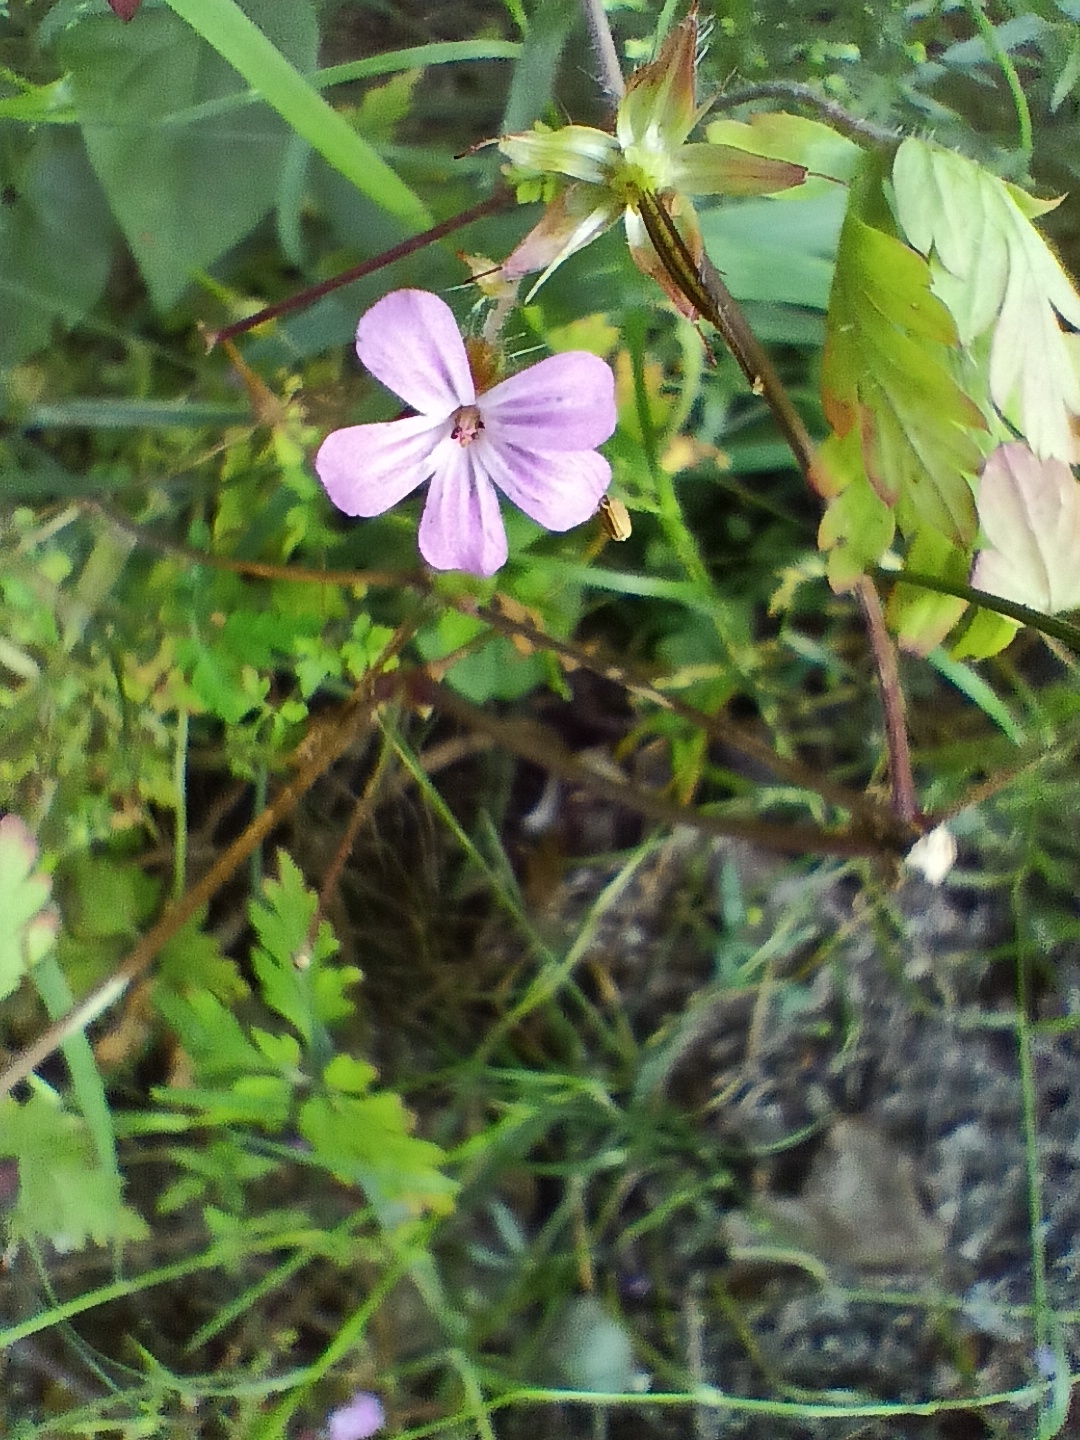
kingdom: Plantae
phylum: Tracheophyta
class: Magnoliopsida
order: Geraniales
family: Geraniaceae
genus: Geranium
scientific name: Geranium robertianum
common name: Herb-robert
